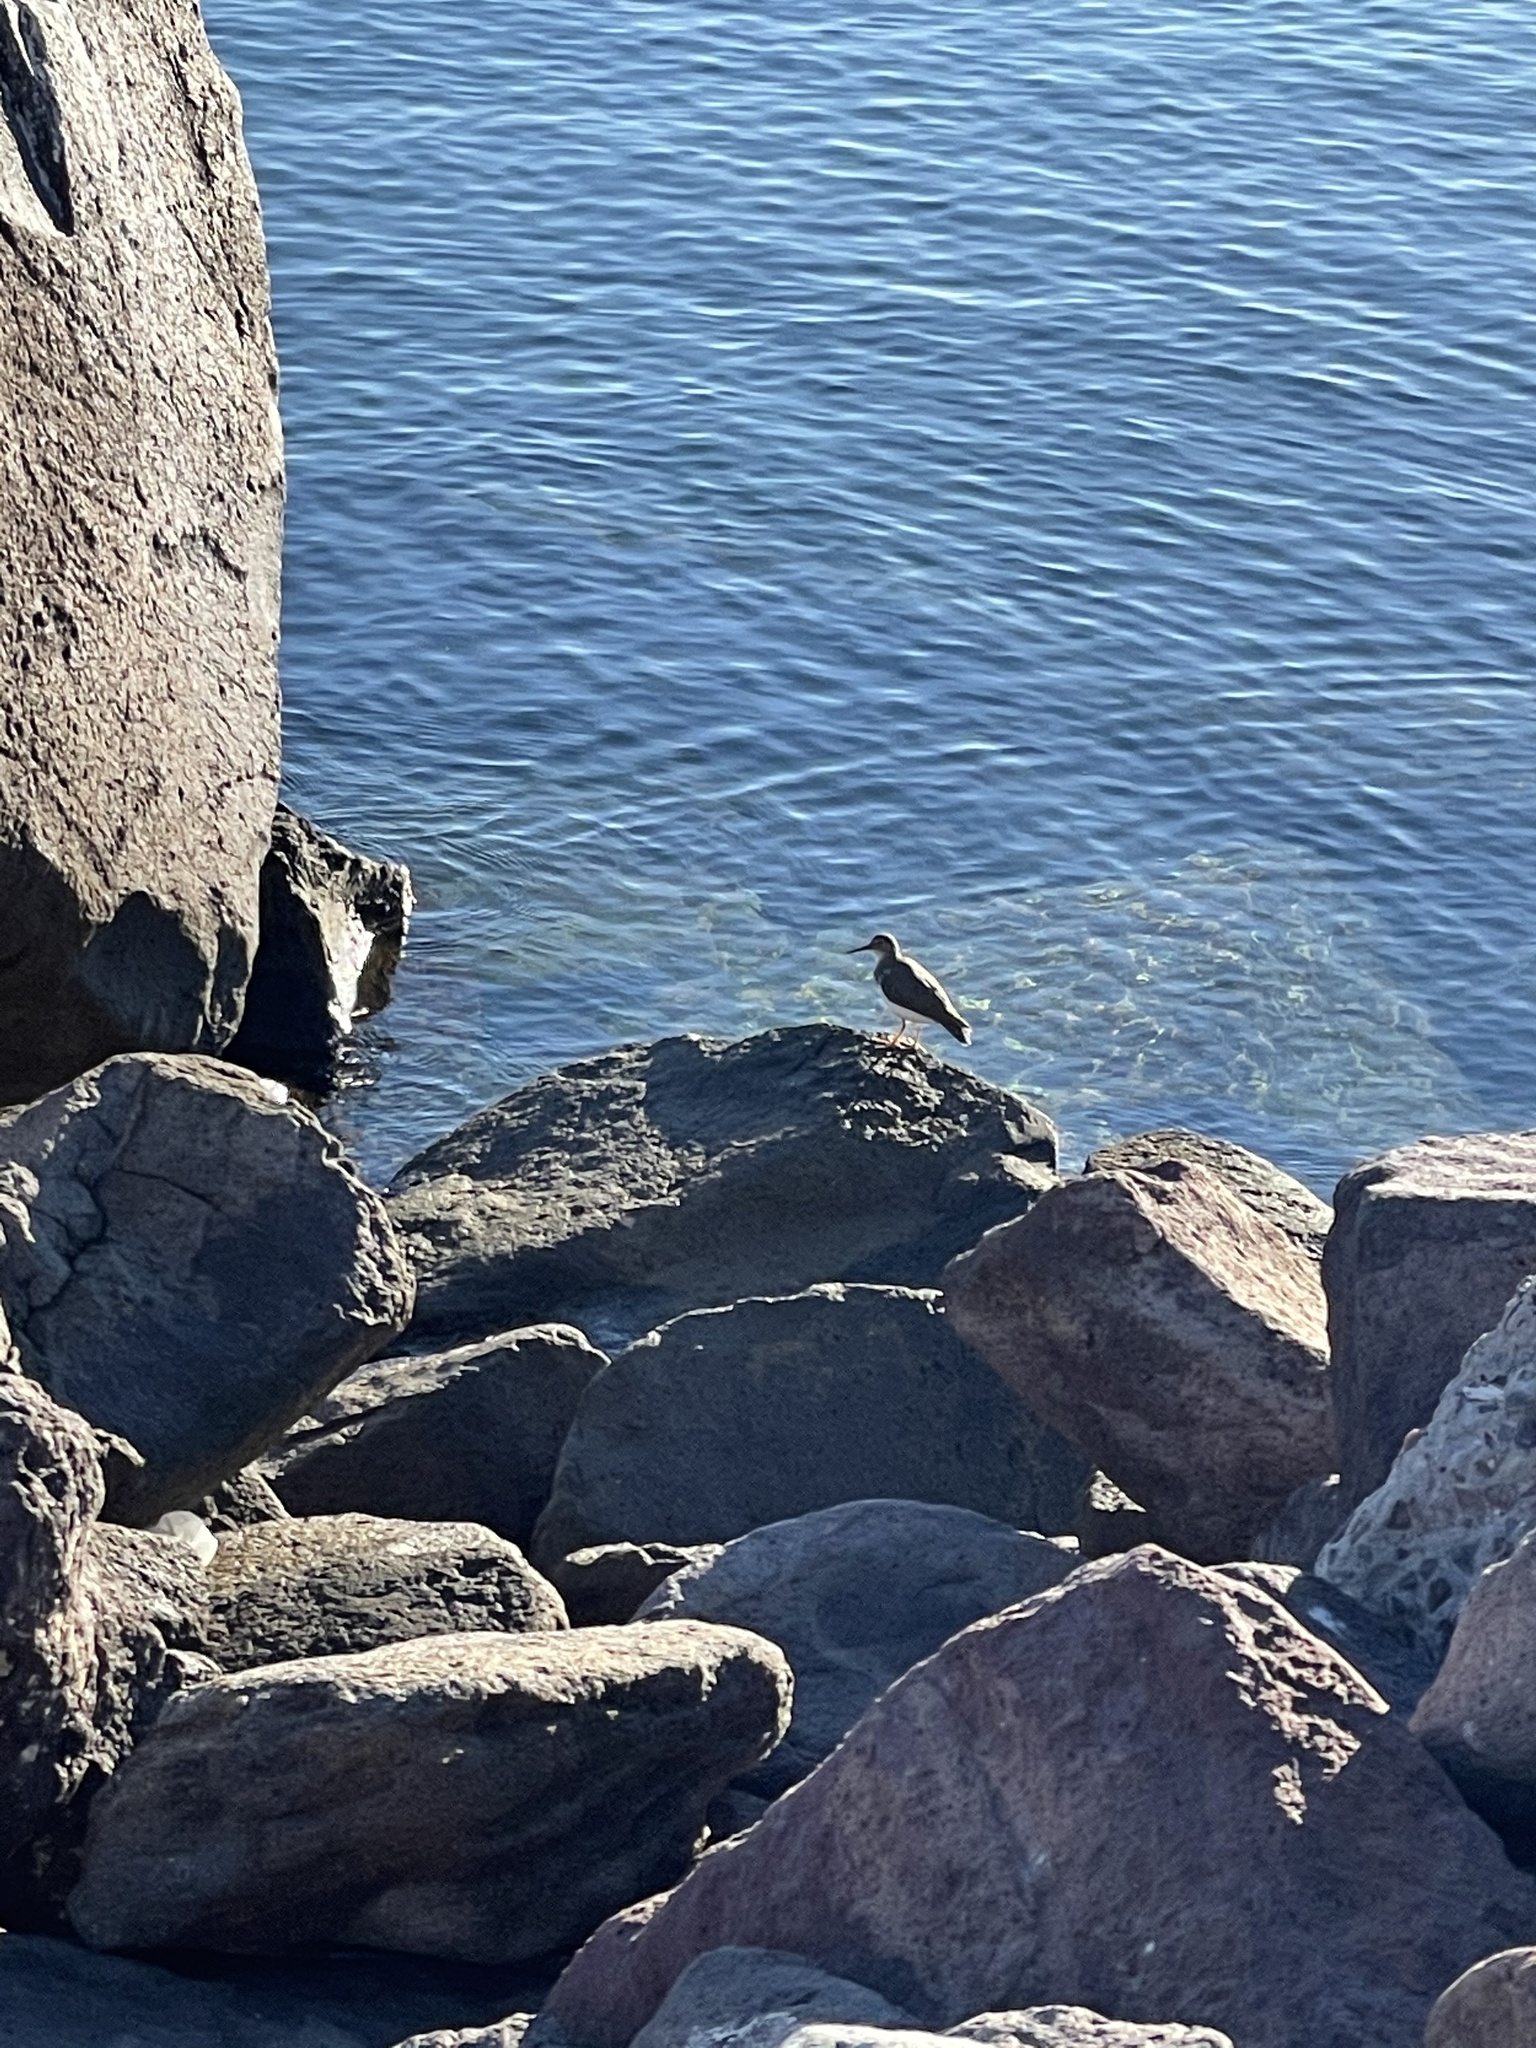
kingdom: Animalia
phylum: Chordata
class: Aves
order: Charadriiformes
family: Scolopacidae
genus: Actitis
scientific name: Actitis macularius
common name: Spotted sandpiper
